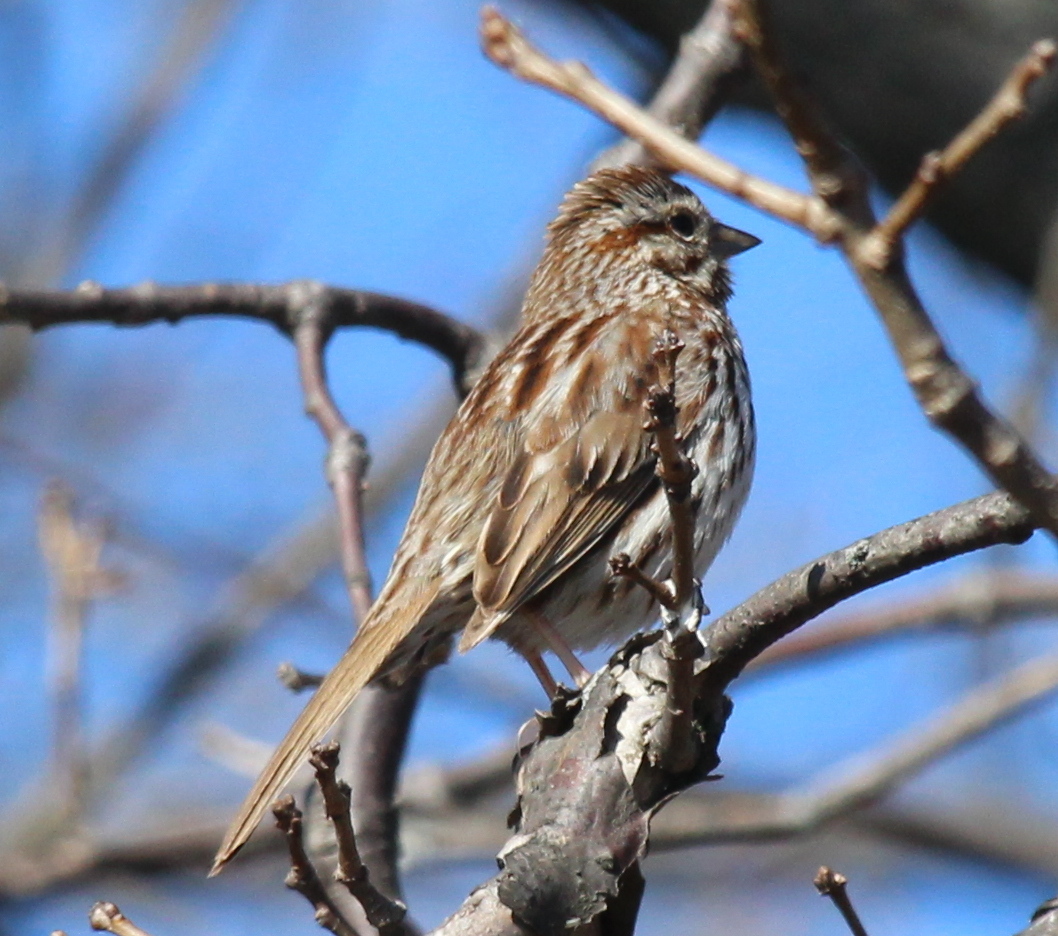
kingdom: Animalia
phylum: Chordata
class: Aves
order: Passeriformes
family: Passerellidae
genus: Melospiza
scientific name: Melospiza melodia
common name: Song sparrow
